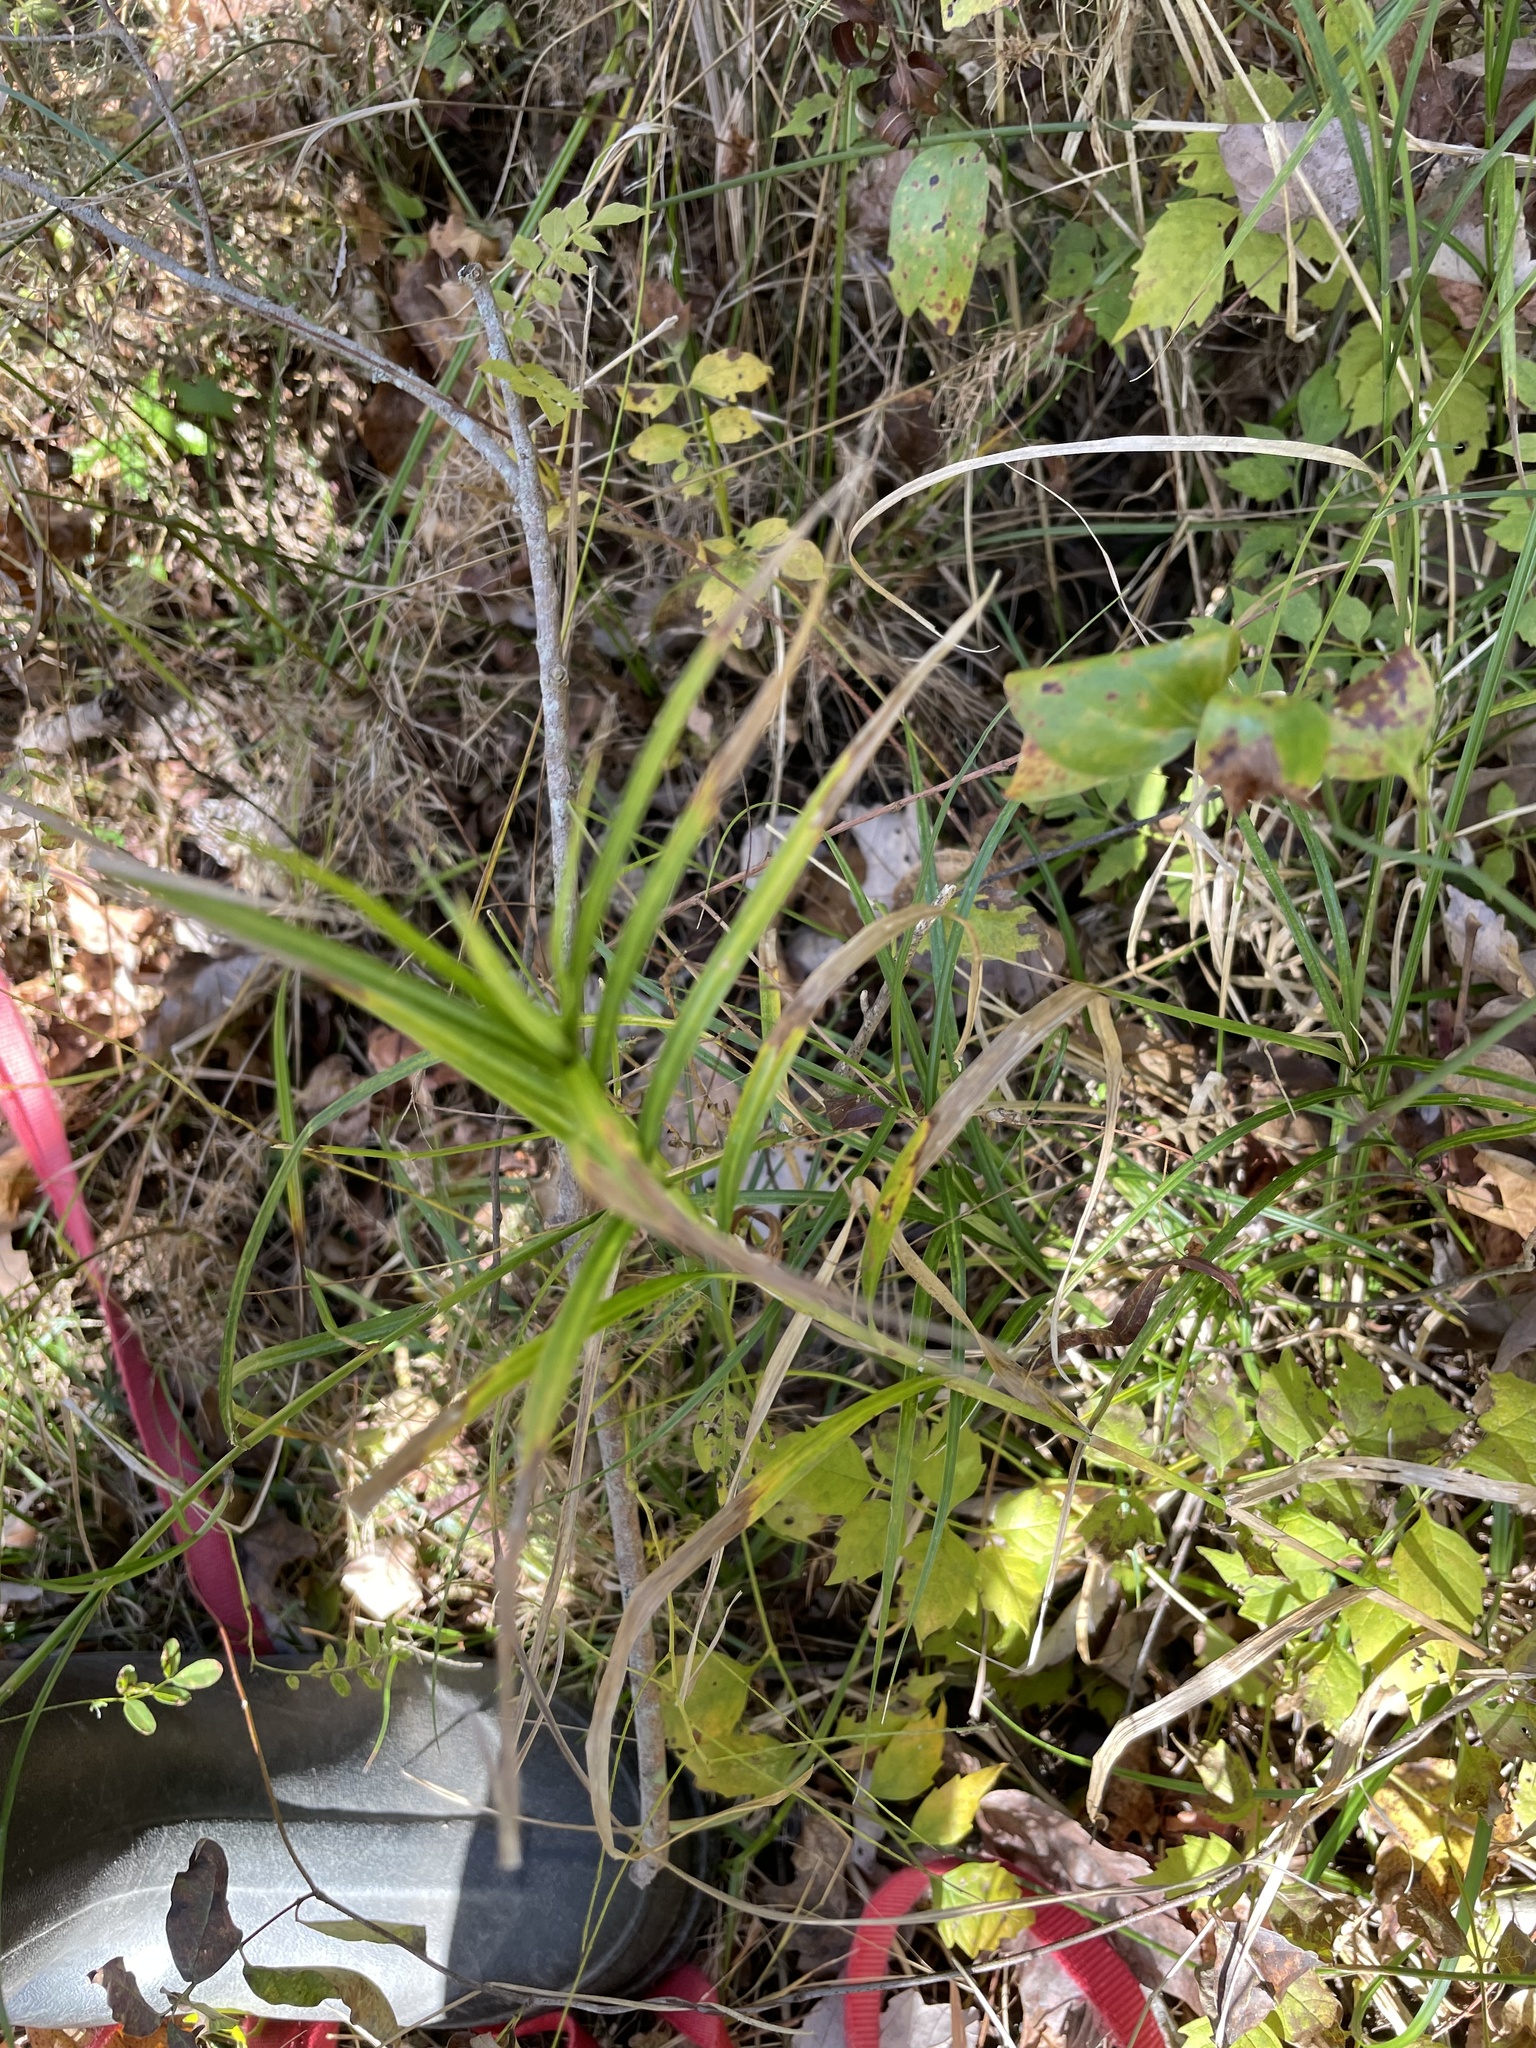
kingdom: Plantae
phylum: Tracheophyta
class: Liliopsida
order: Poales
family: Cyperaceae
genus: Dulichium
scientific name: Dulichium arundinaceum
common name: Three-way sedge
